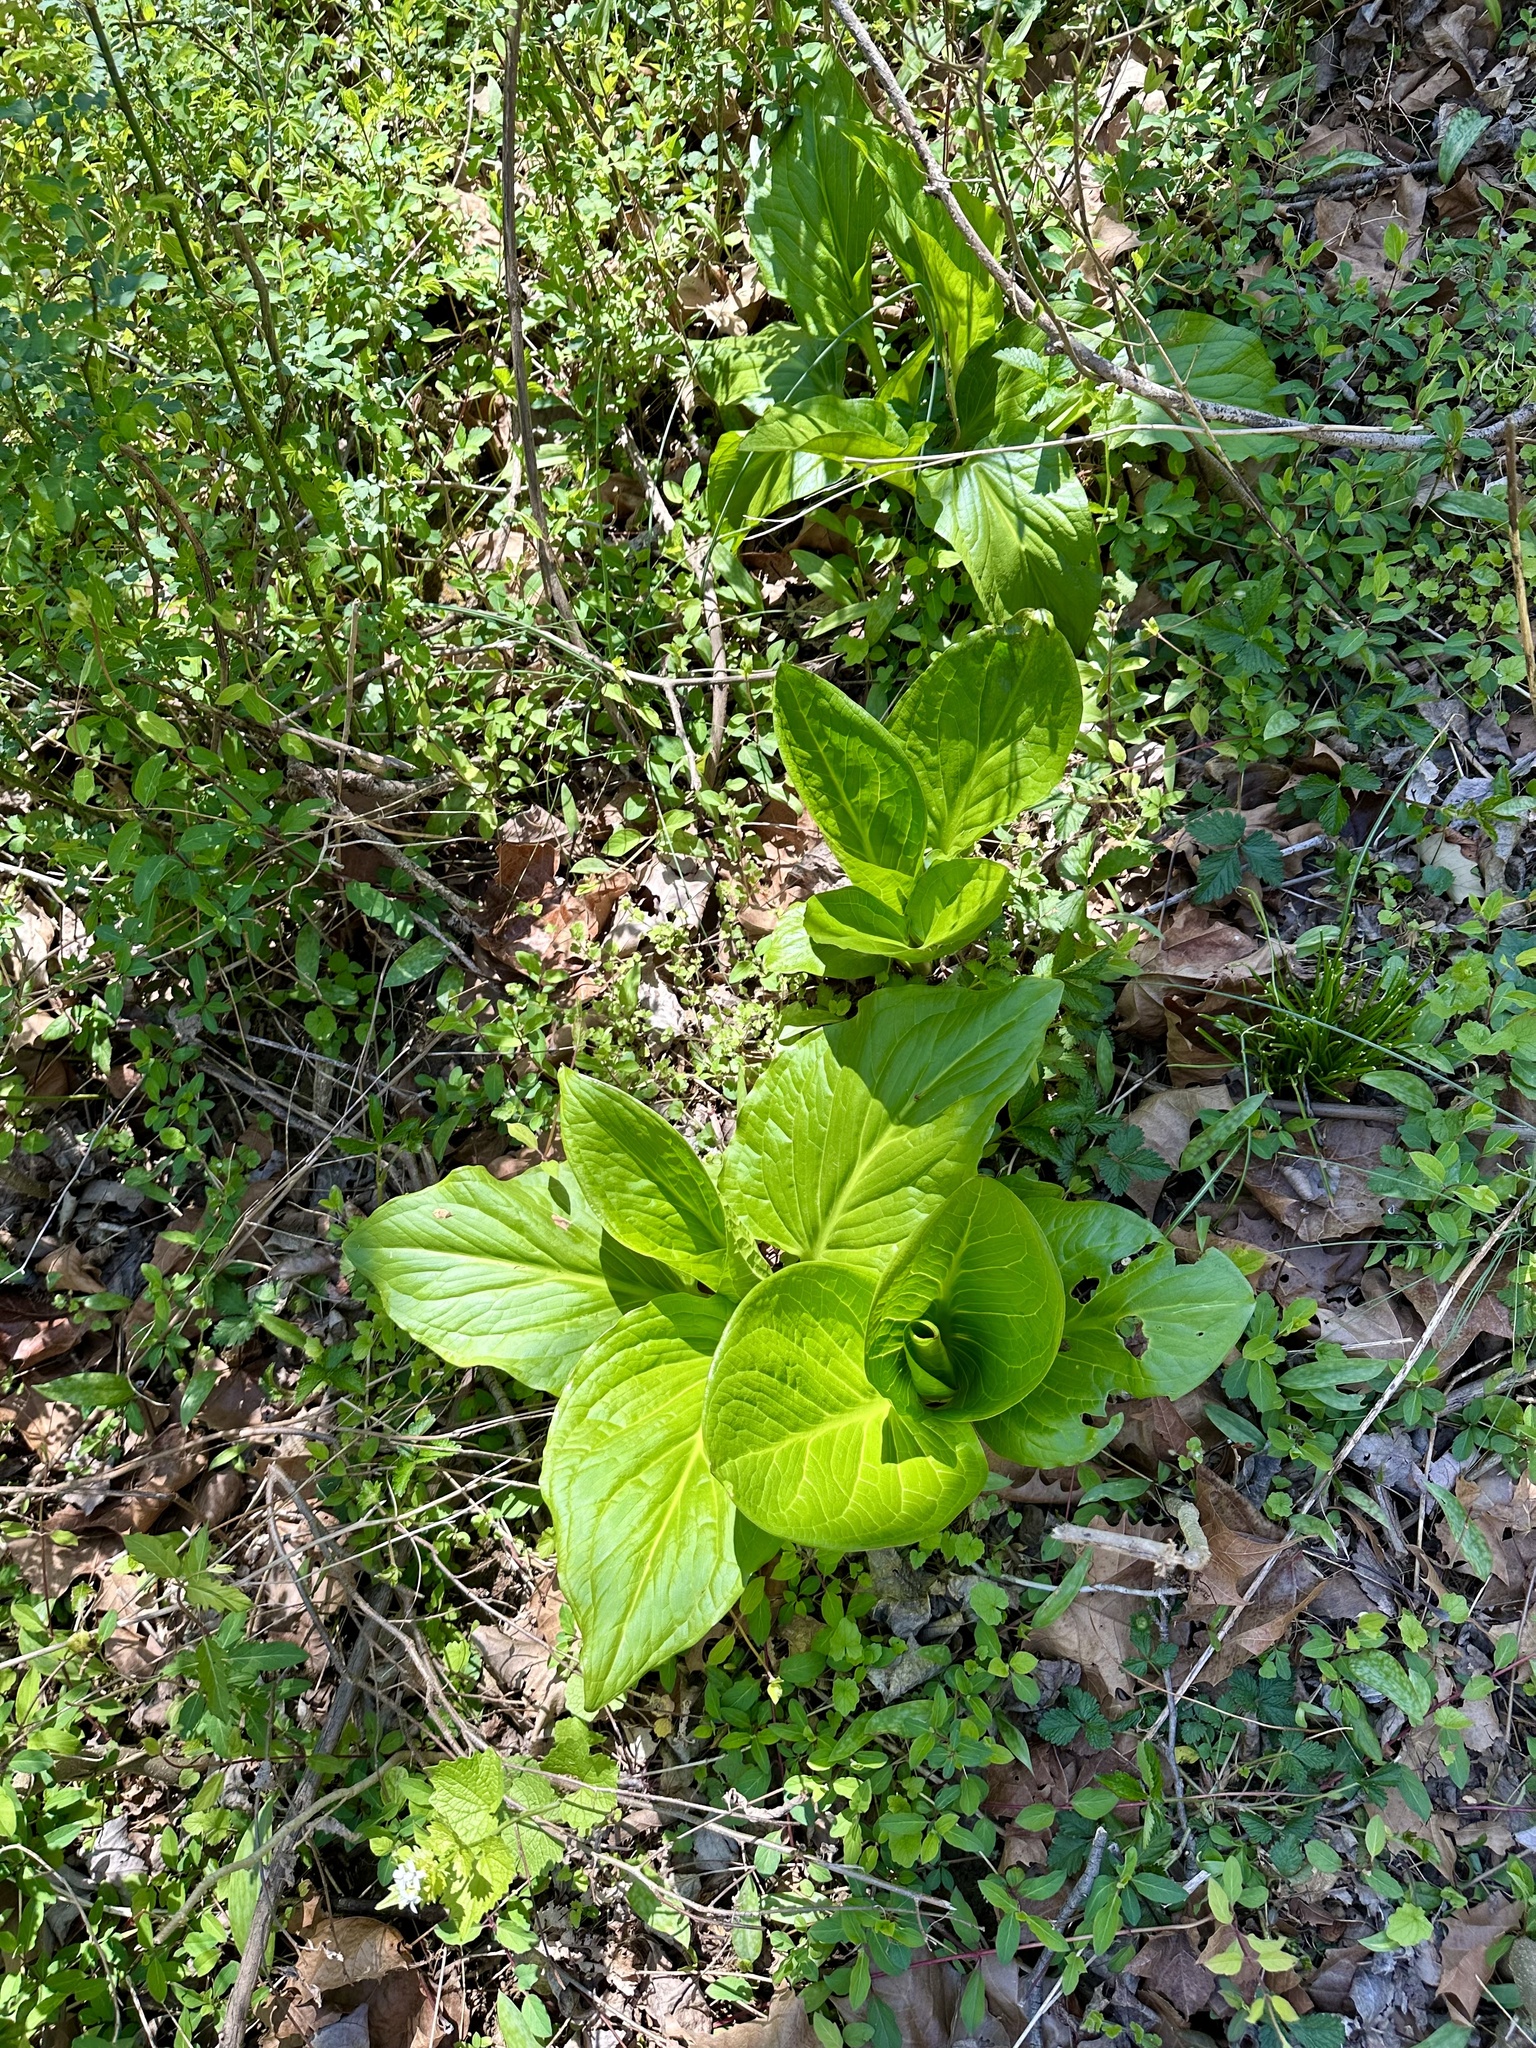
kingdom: Plantae
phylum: Tracheophyta
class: Liliopsida
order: Alismatales
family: Araceae
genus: Symplocarpus
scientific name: Symplocarpus foetidus
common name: Eastern skunk cabbage
